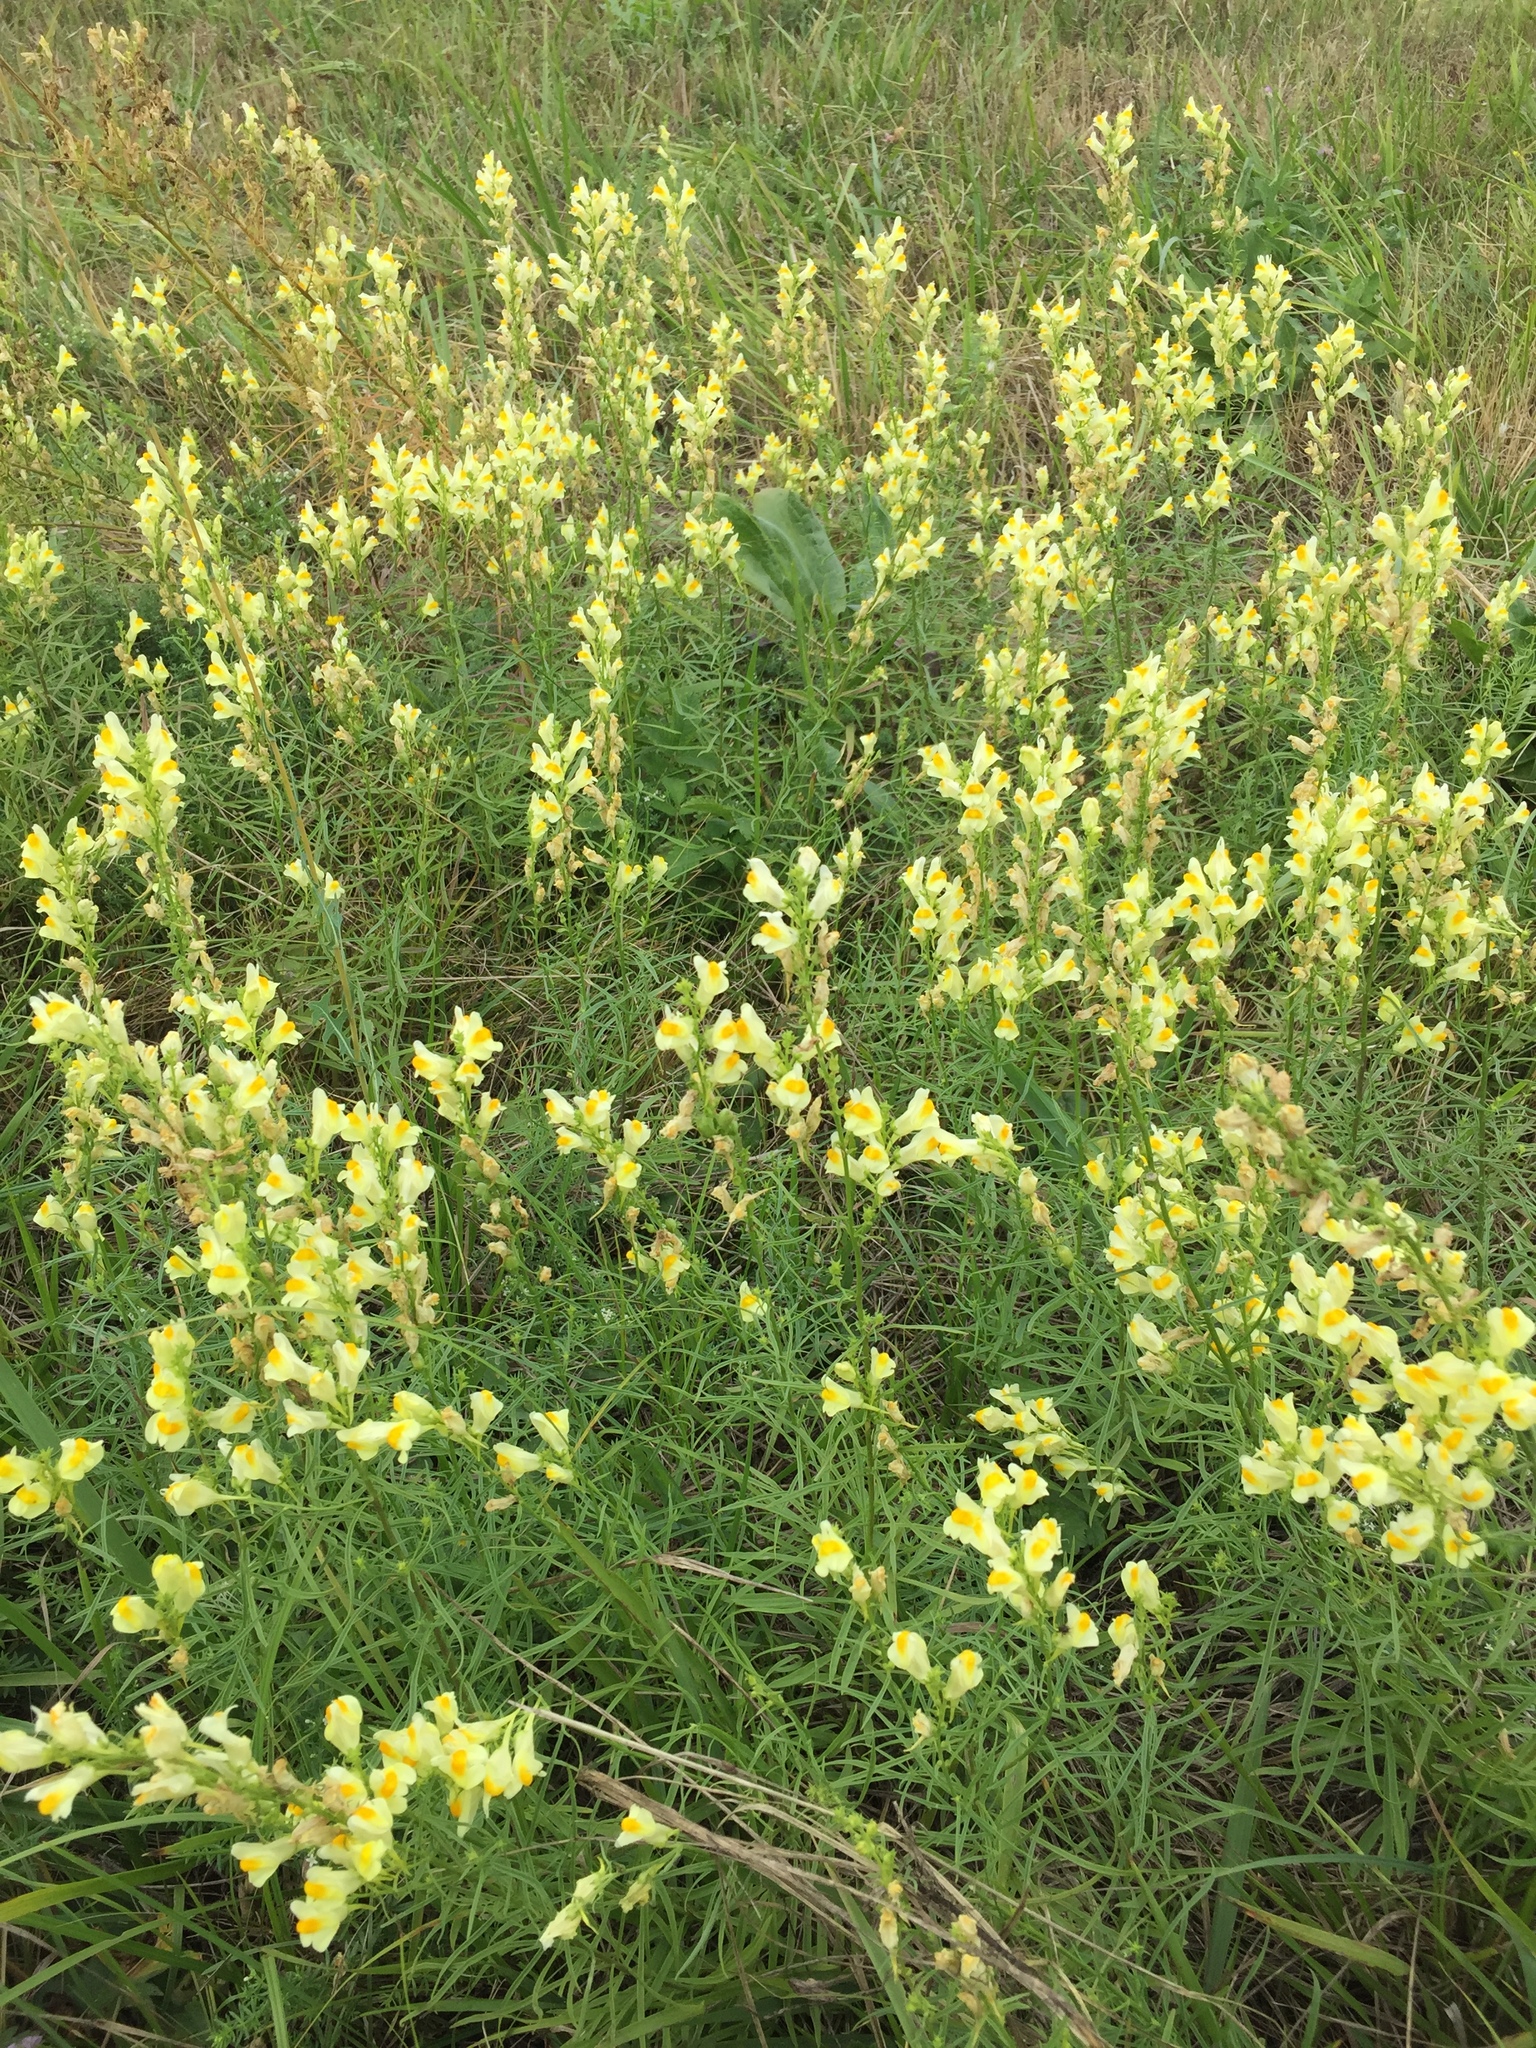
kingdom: Plantae
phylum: Tracheophyta
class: Magnoliopsida
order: Lamiales
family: Plantaginaceae
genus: Linaria
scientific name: Linaria vulgaris
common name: Butter and eggs
